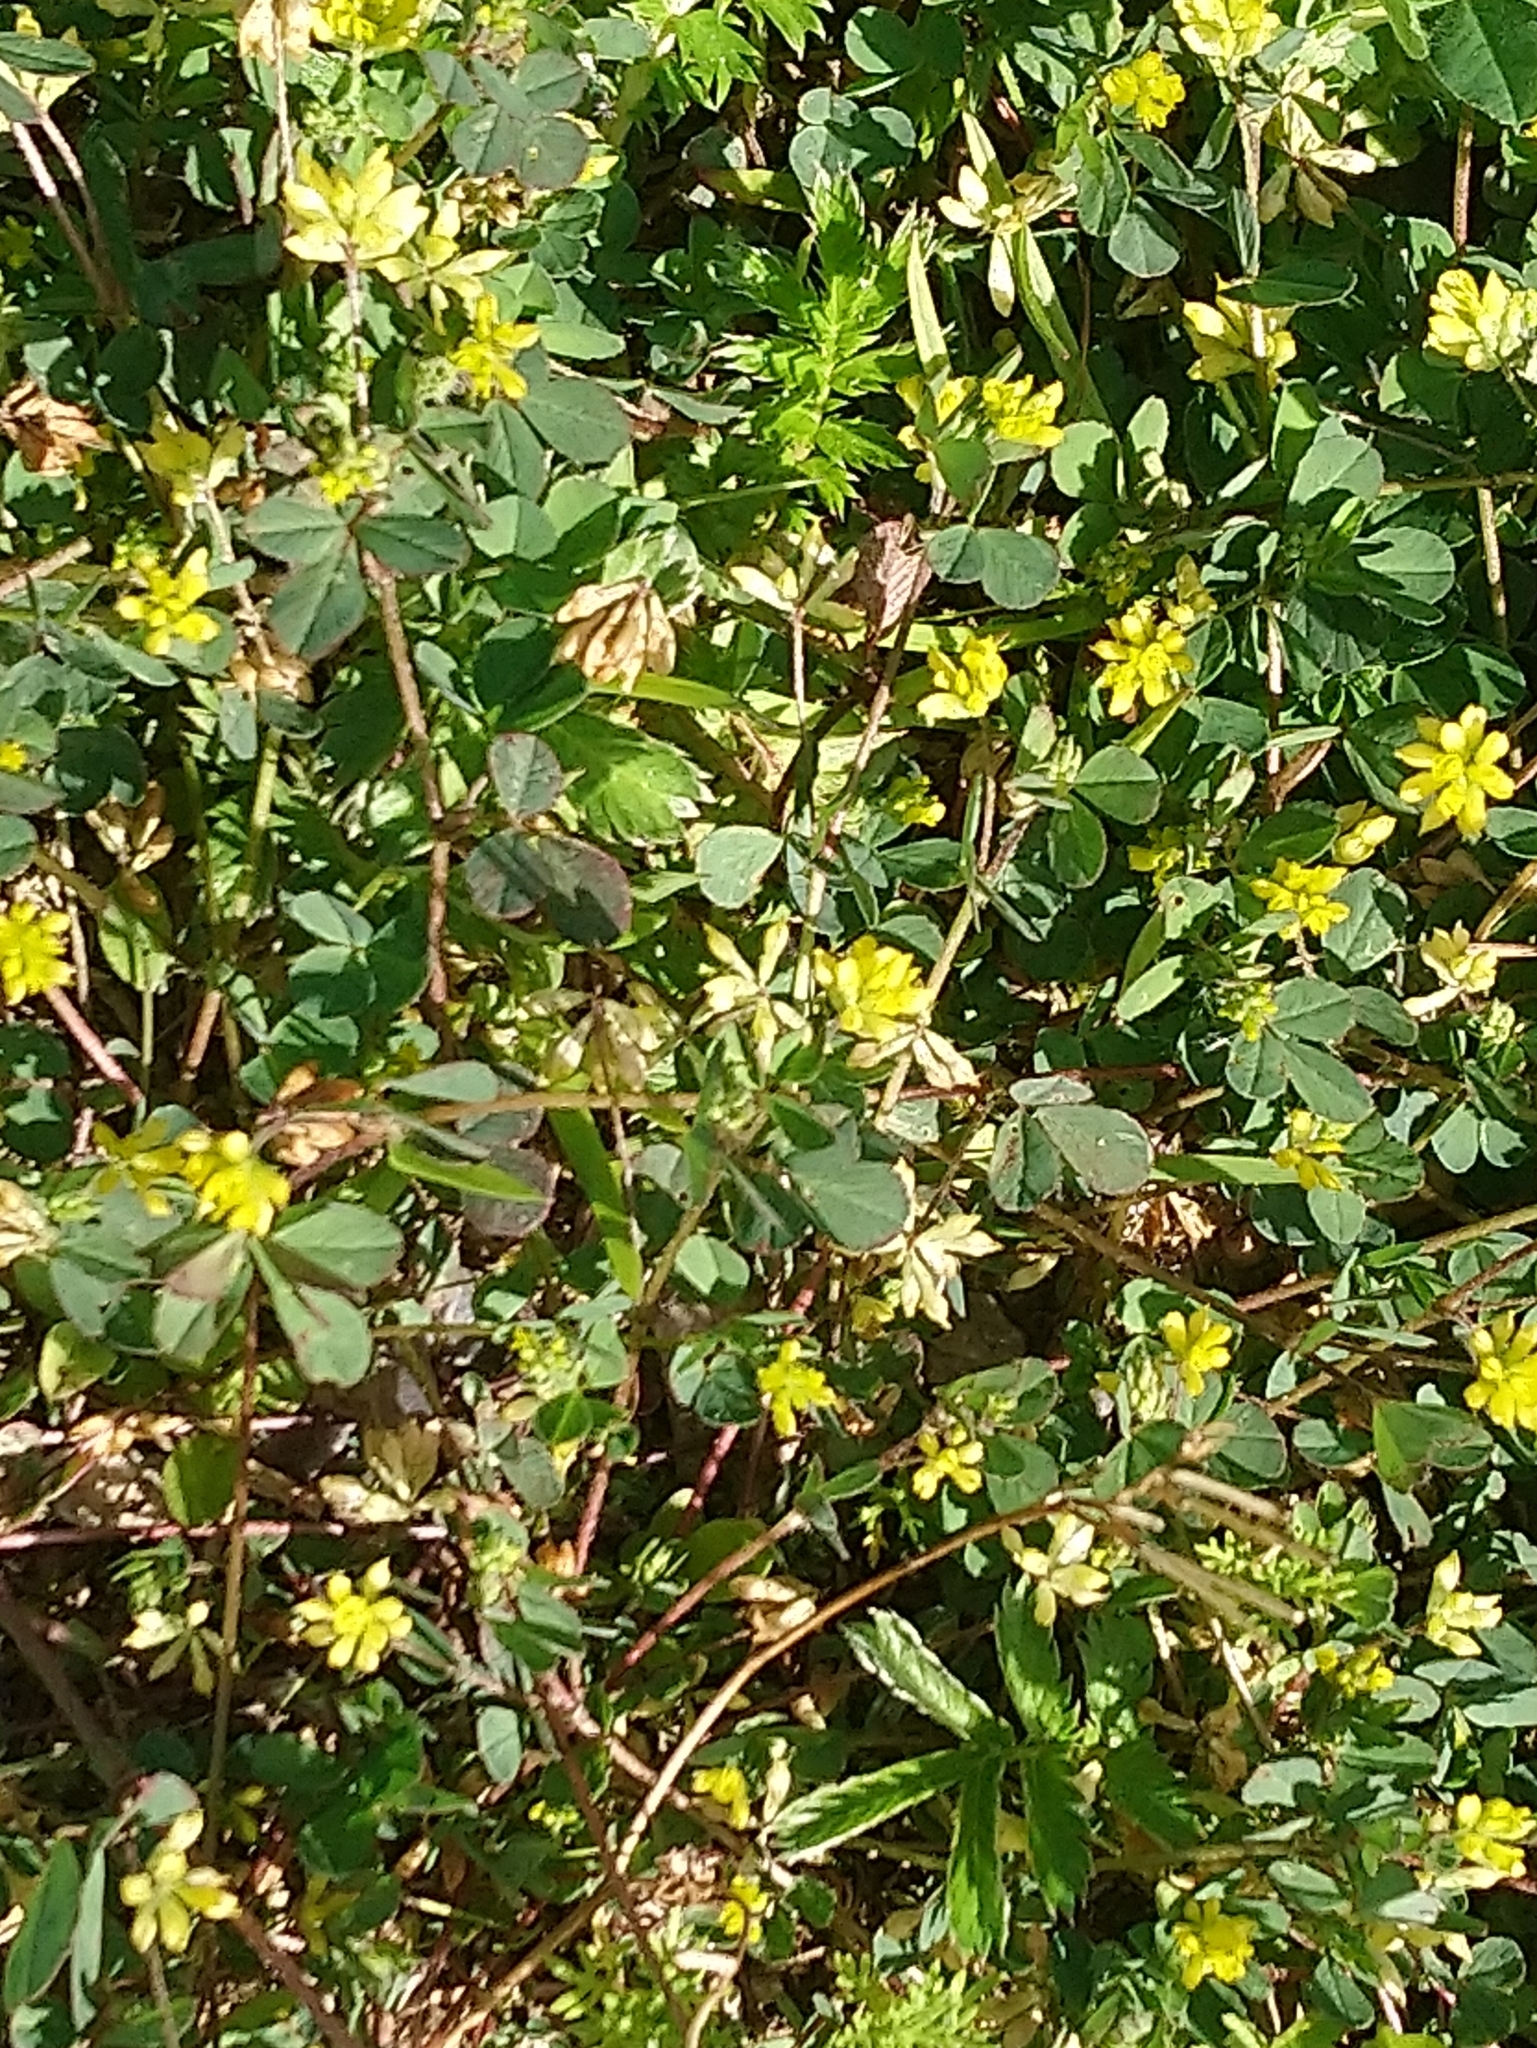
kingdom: Plantae
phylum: Tracheophyta
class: Magnoliopsida
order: Fabales
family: Fabaceae
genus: Trifolium
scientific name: Trifolium dubium
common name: Suckling clover
